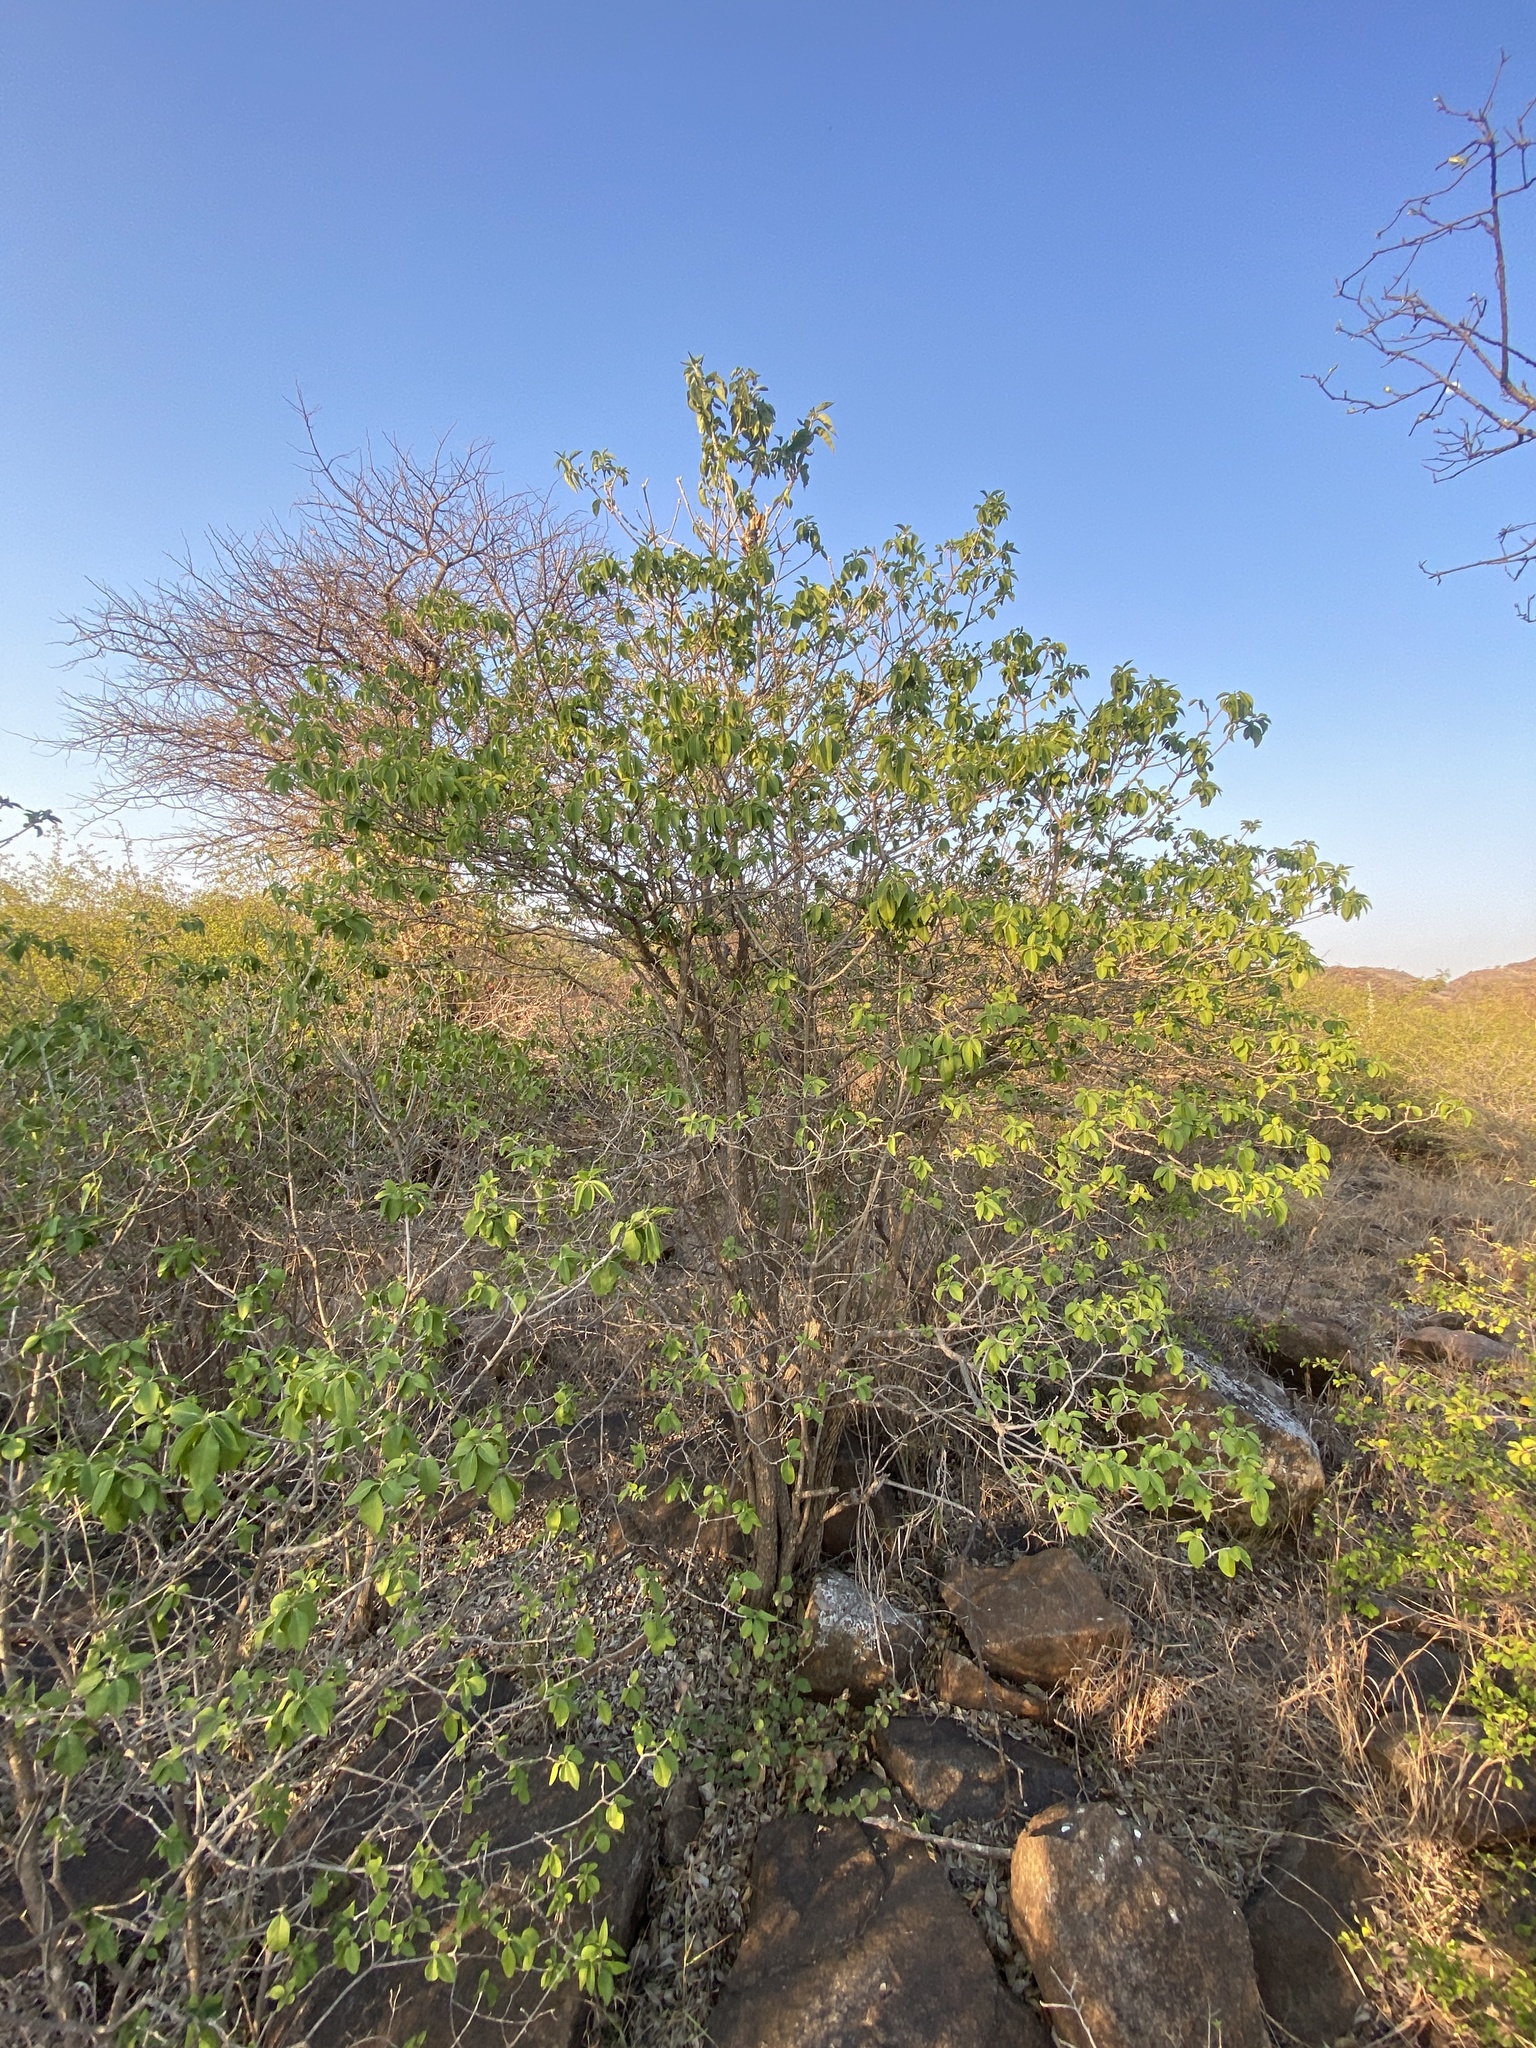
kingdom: Plantae
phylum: Tracheophyta
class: Magnoliopsida
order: Lamiales
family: Lamiaceae
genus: Volkameria
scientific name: Volkameria glabra
